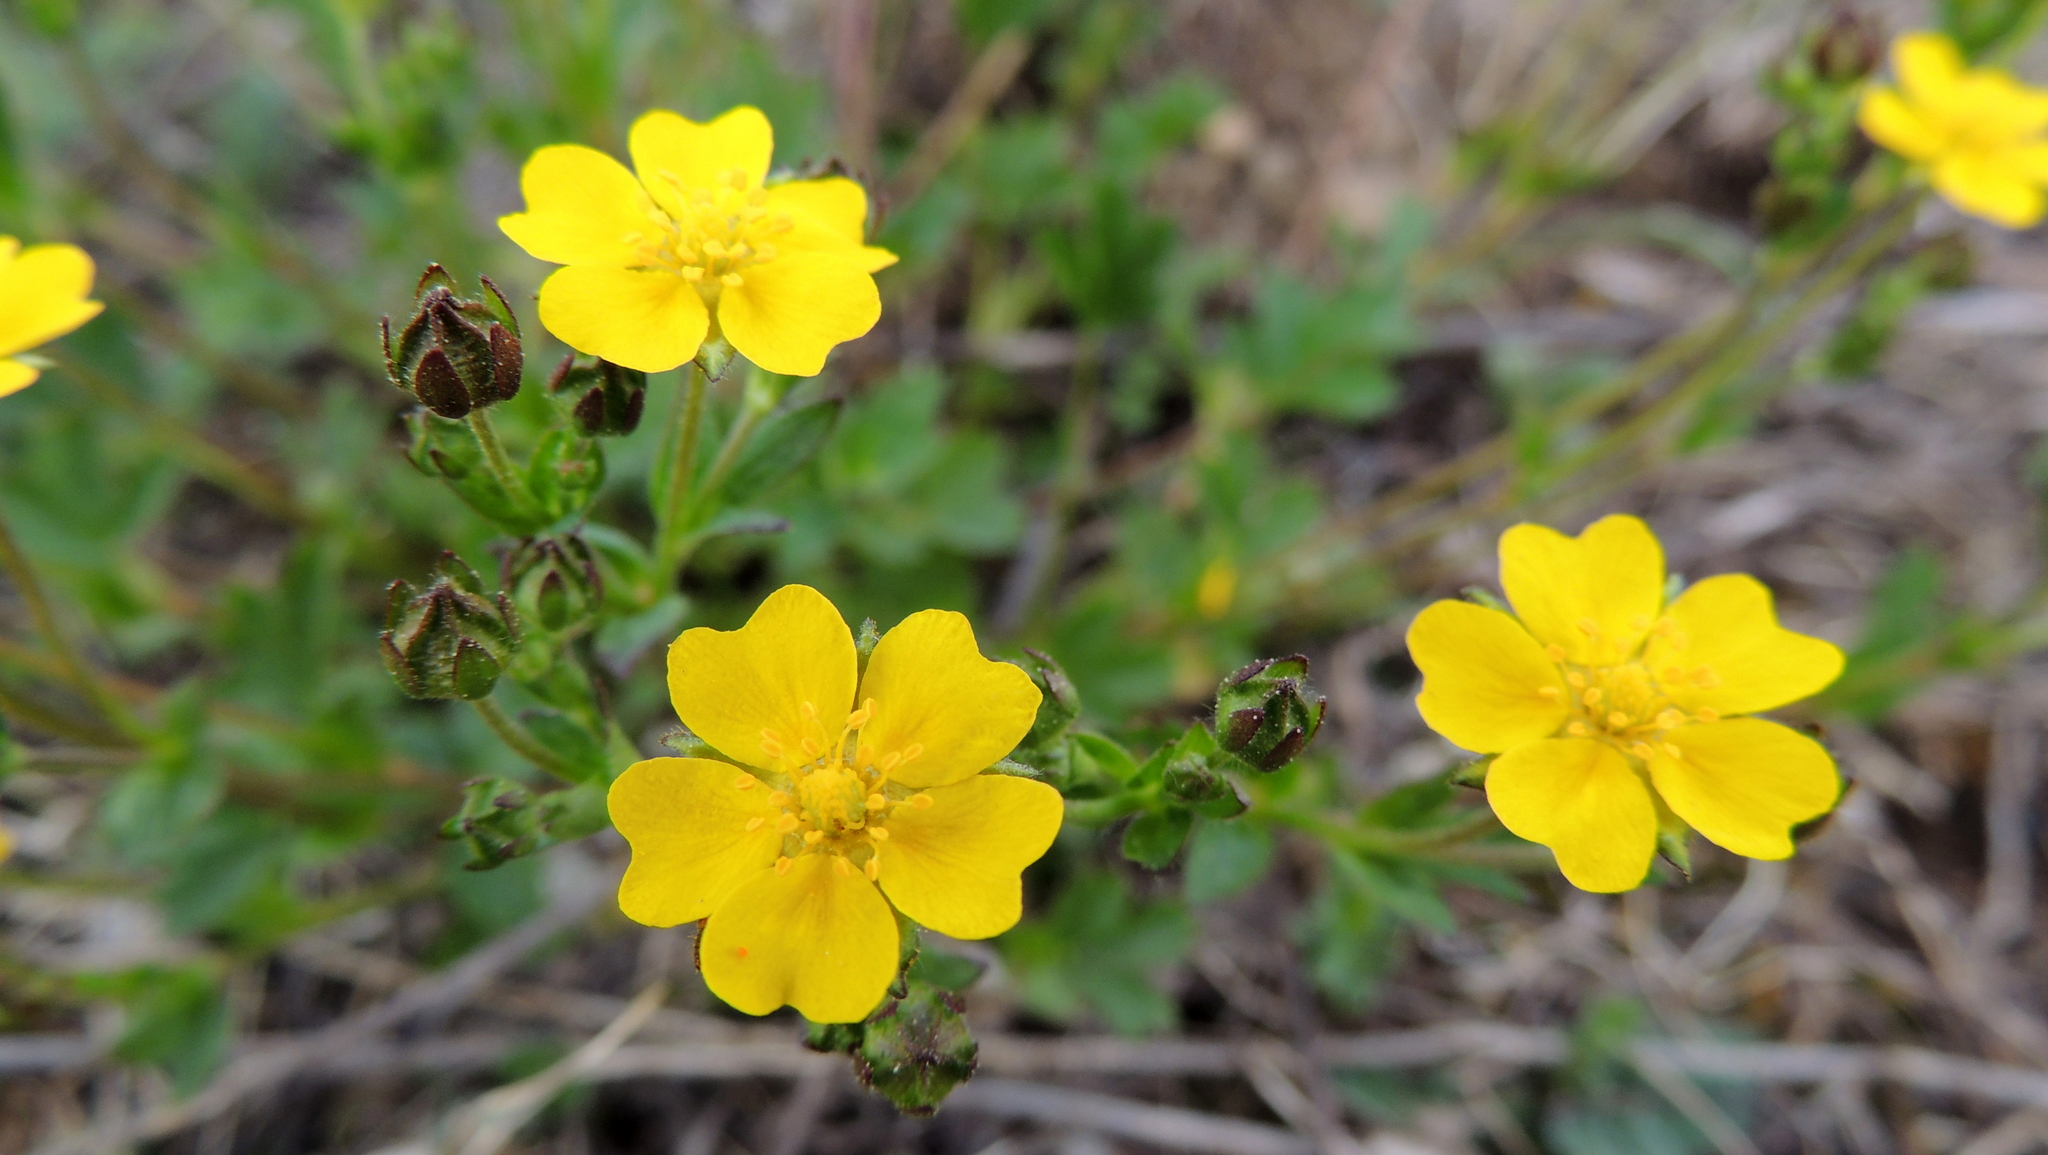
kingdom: Plantae
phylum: Tracheophyta
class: Magnoliopsida
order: Rosales
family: Rosaceae
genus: Potentilla
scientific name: Potentilla crantzii
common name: Alpine cinquefoil
